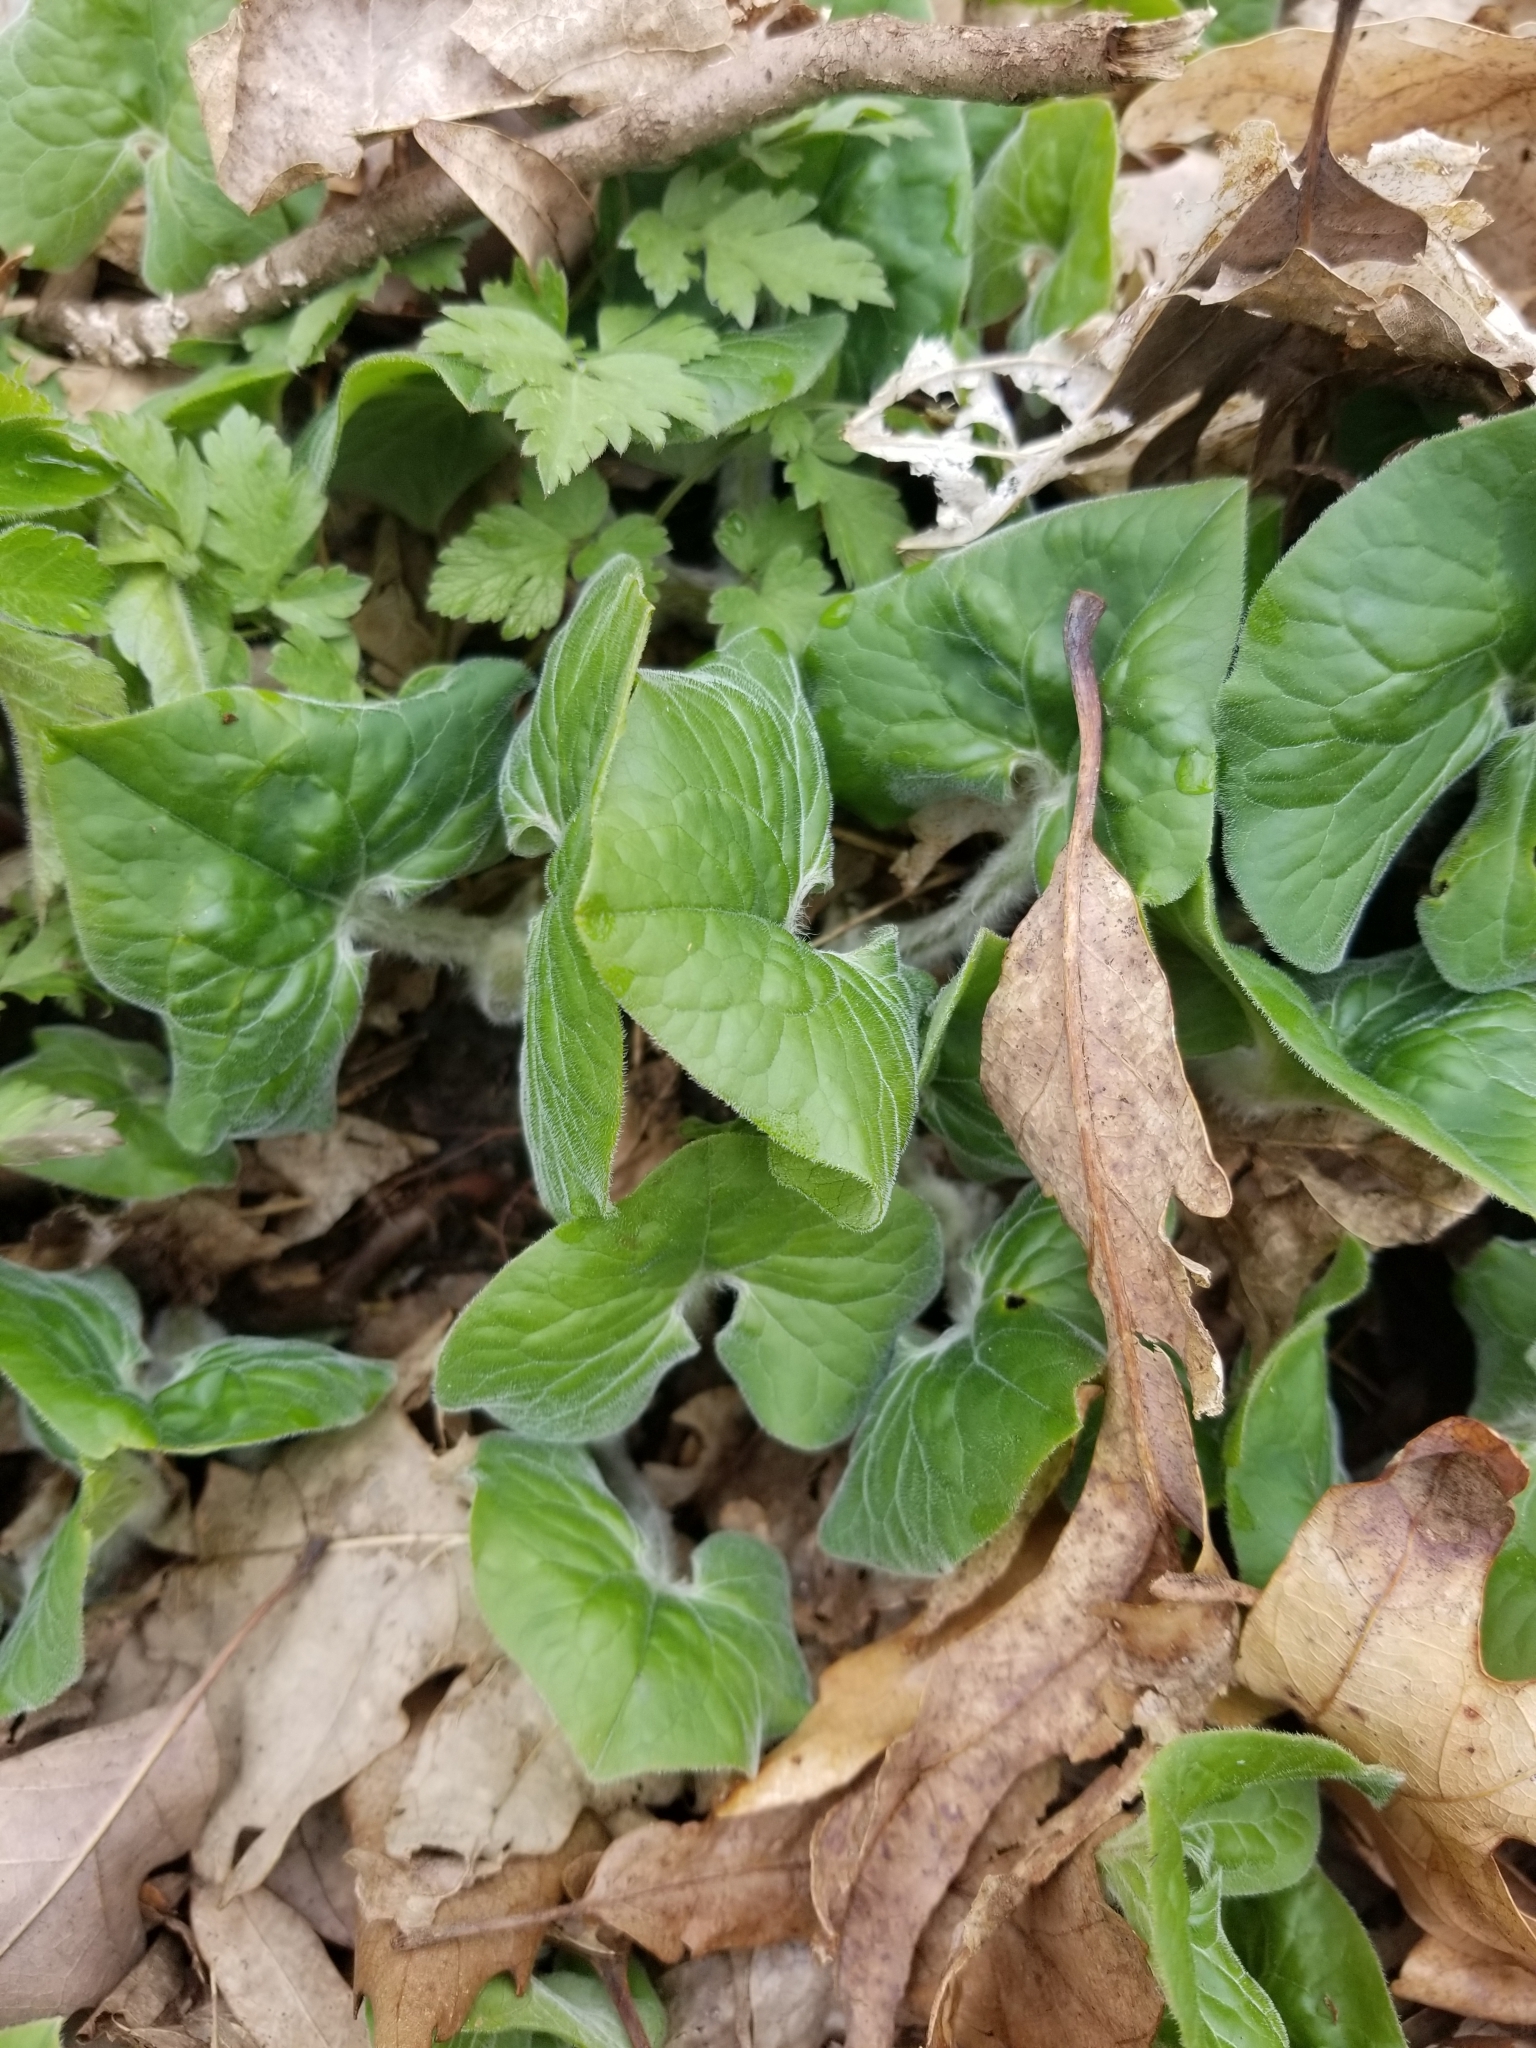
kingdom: Plantae
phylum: Tracheophyta
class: Magnoliopsida
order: Piperales
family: Aristolochiaceae
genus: Asarum
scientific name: Asarum canadense
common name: Wild ginger
